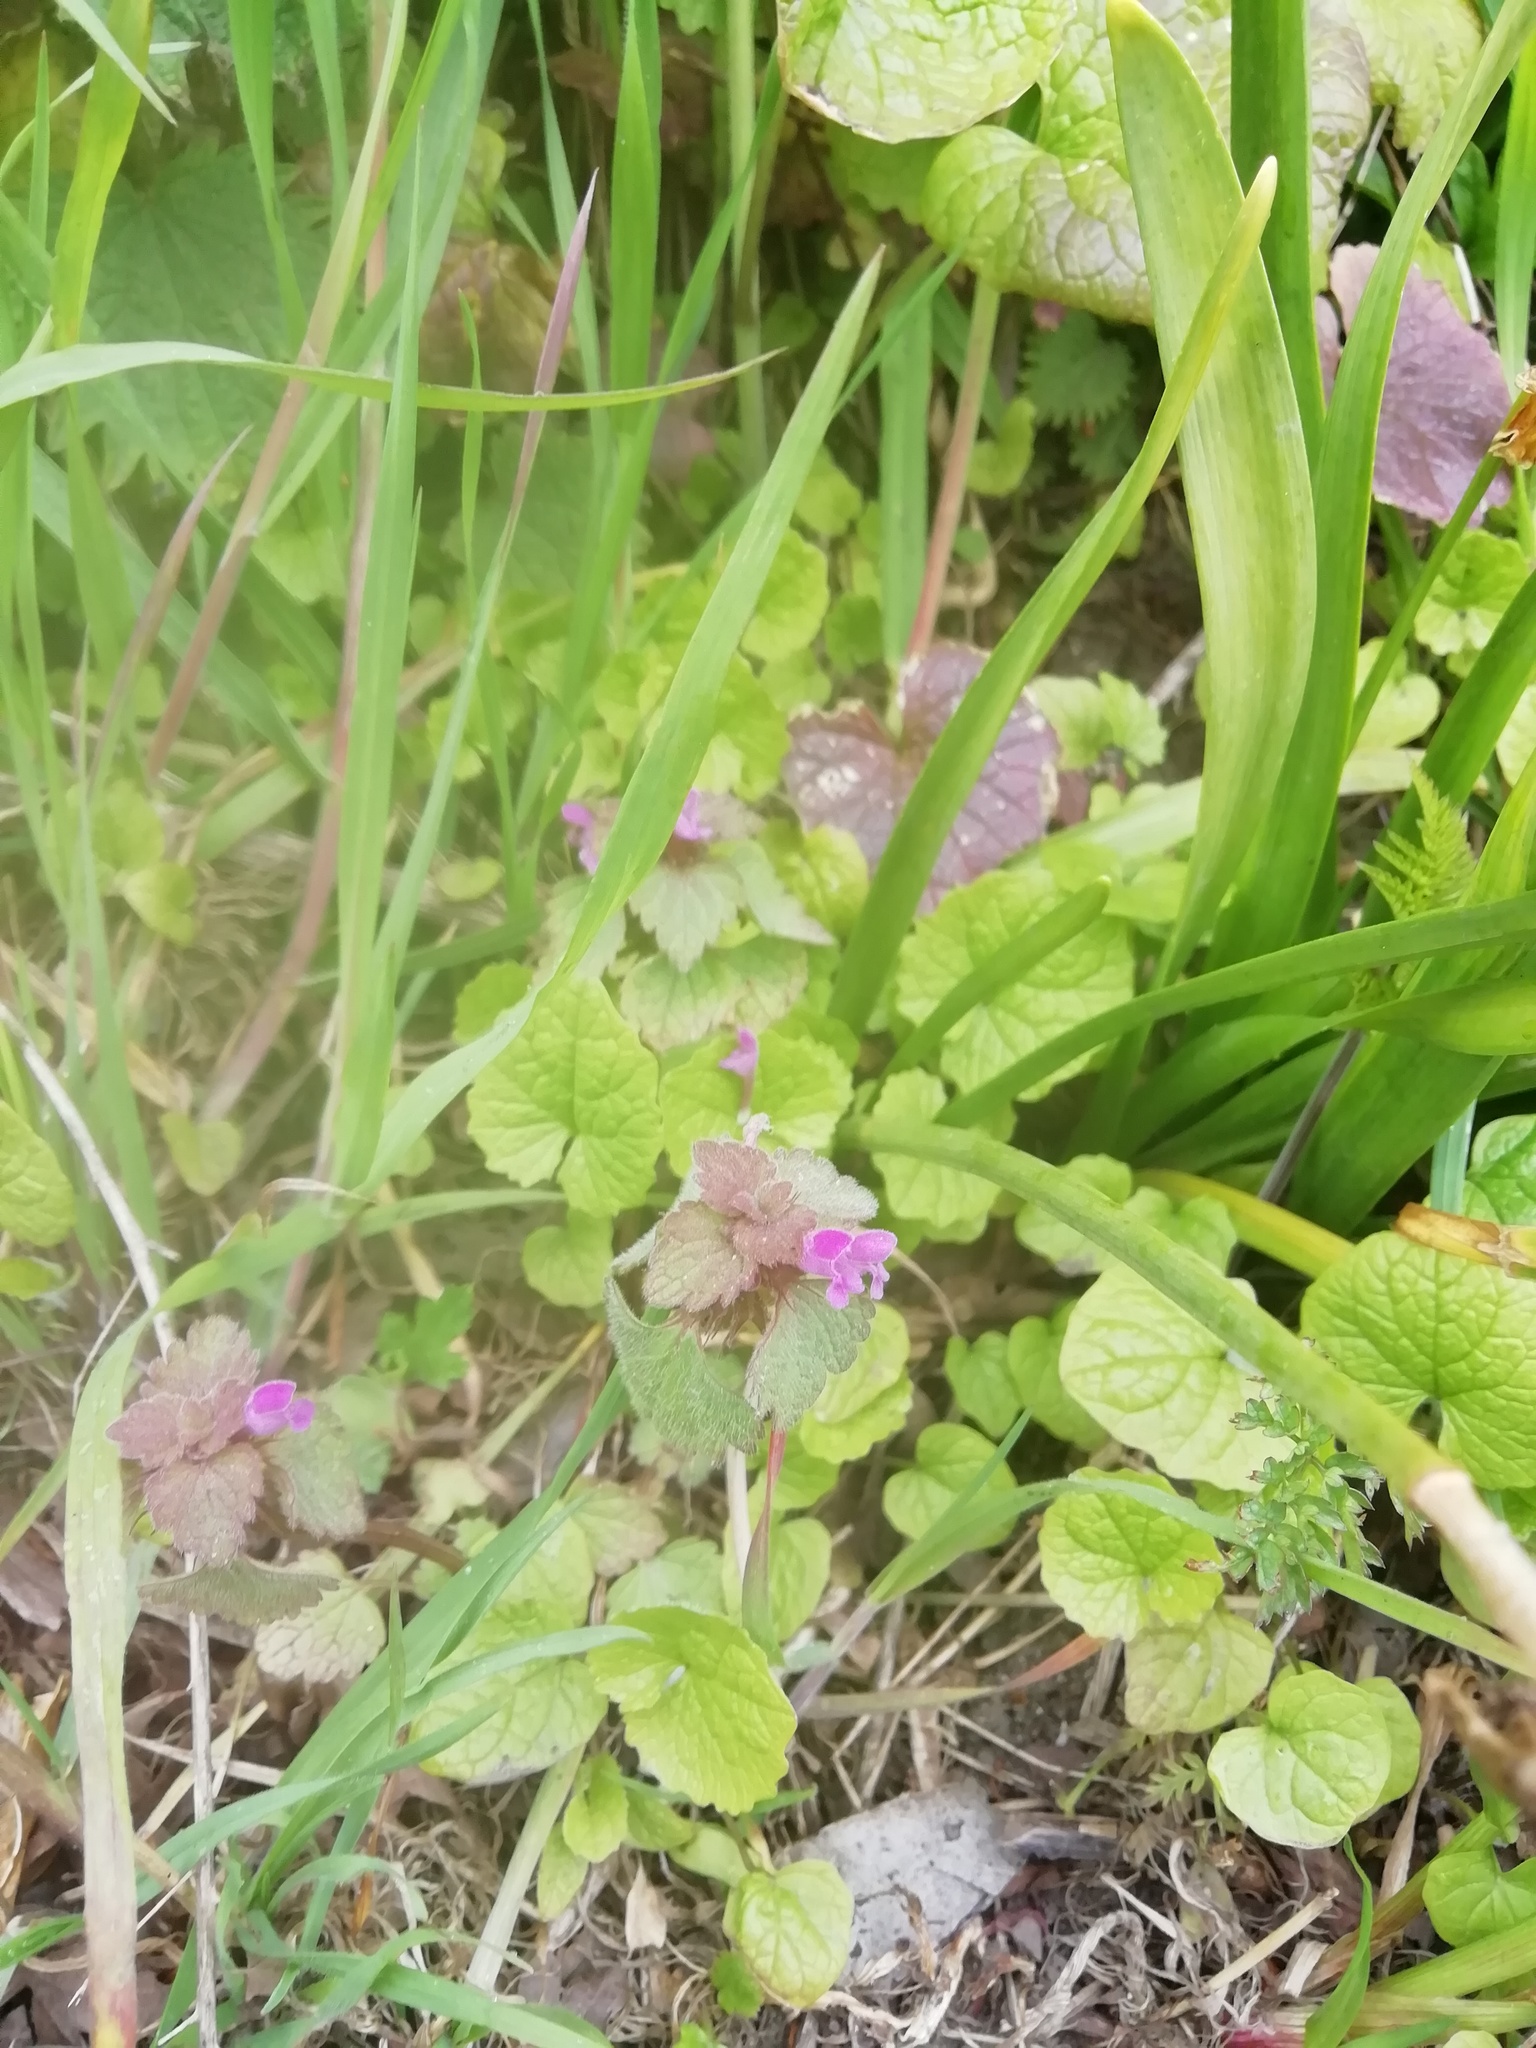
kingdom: Plantae
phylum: Tracheophyta
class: Magnoliopsida
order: Lamiales
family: Lamiaceae
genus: Lamium
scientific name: Lamium purpureum
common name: Red dead-nettle
